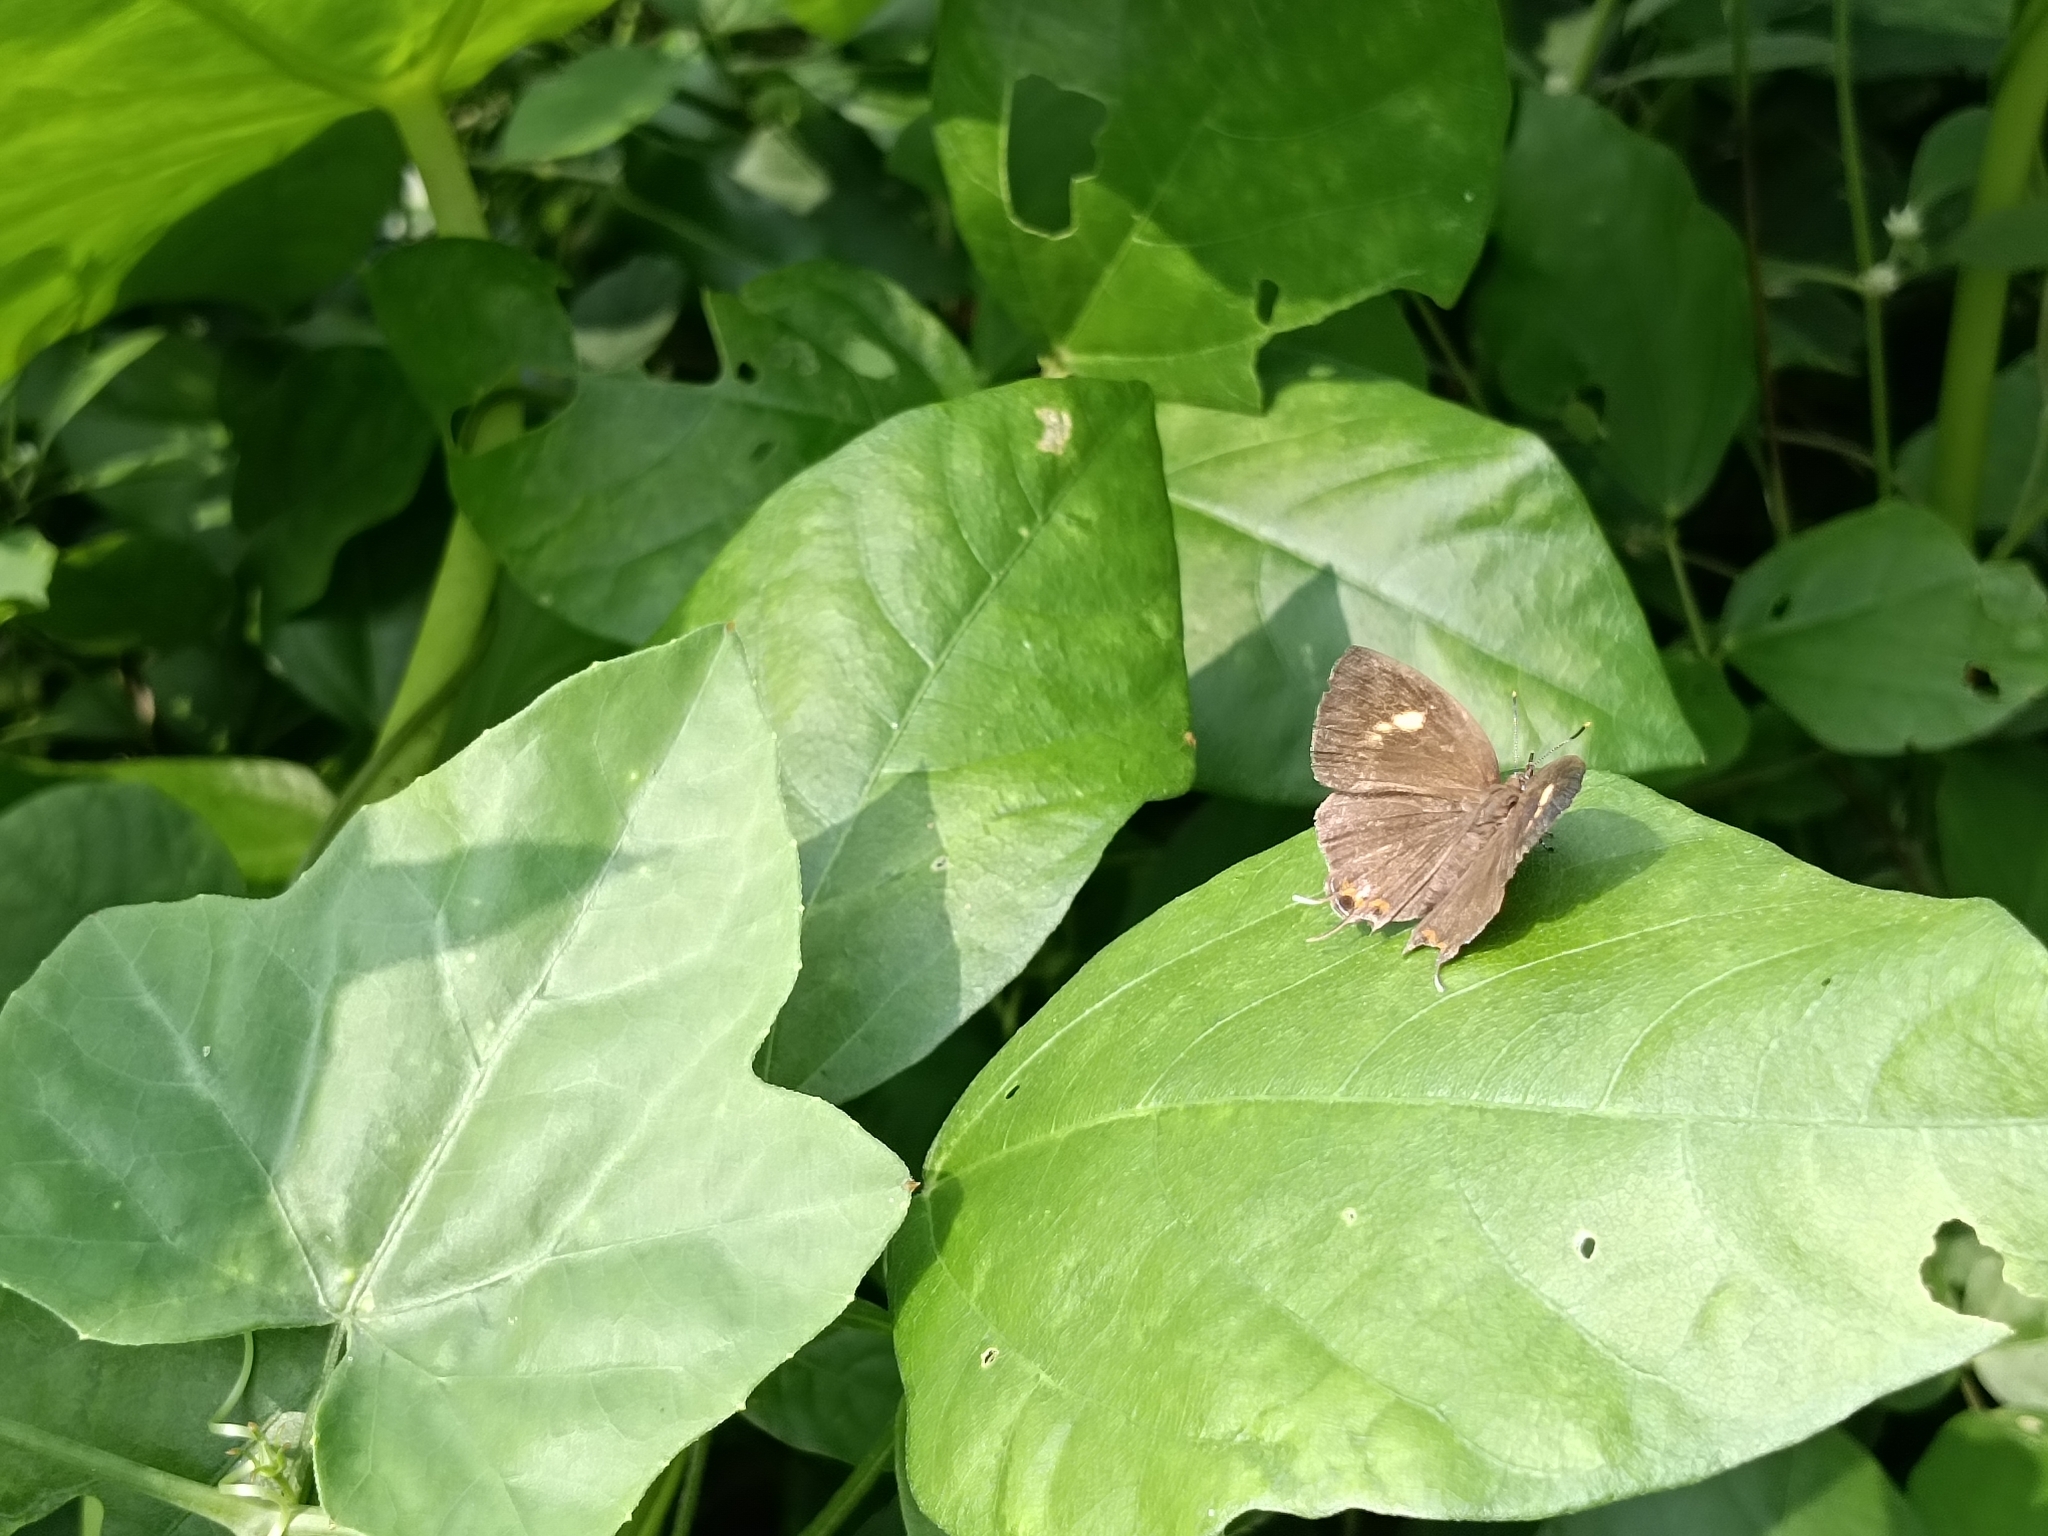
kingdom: Animalia
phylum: Arthropoda
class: Insecta
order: Lepidoptera
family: Lycaenidae
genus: Rathinda
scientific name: Rathinda amor
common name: Monkey puzzle
